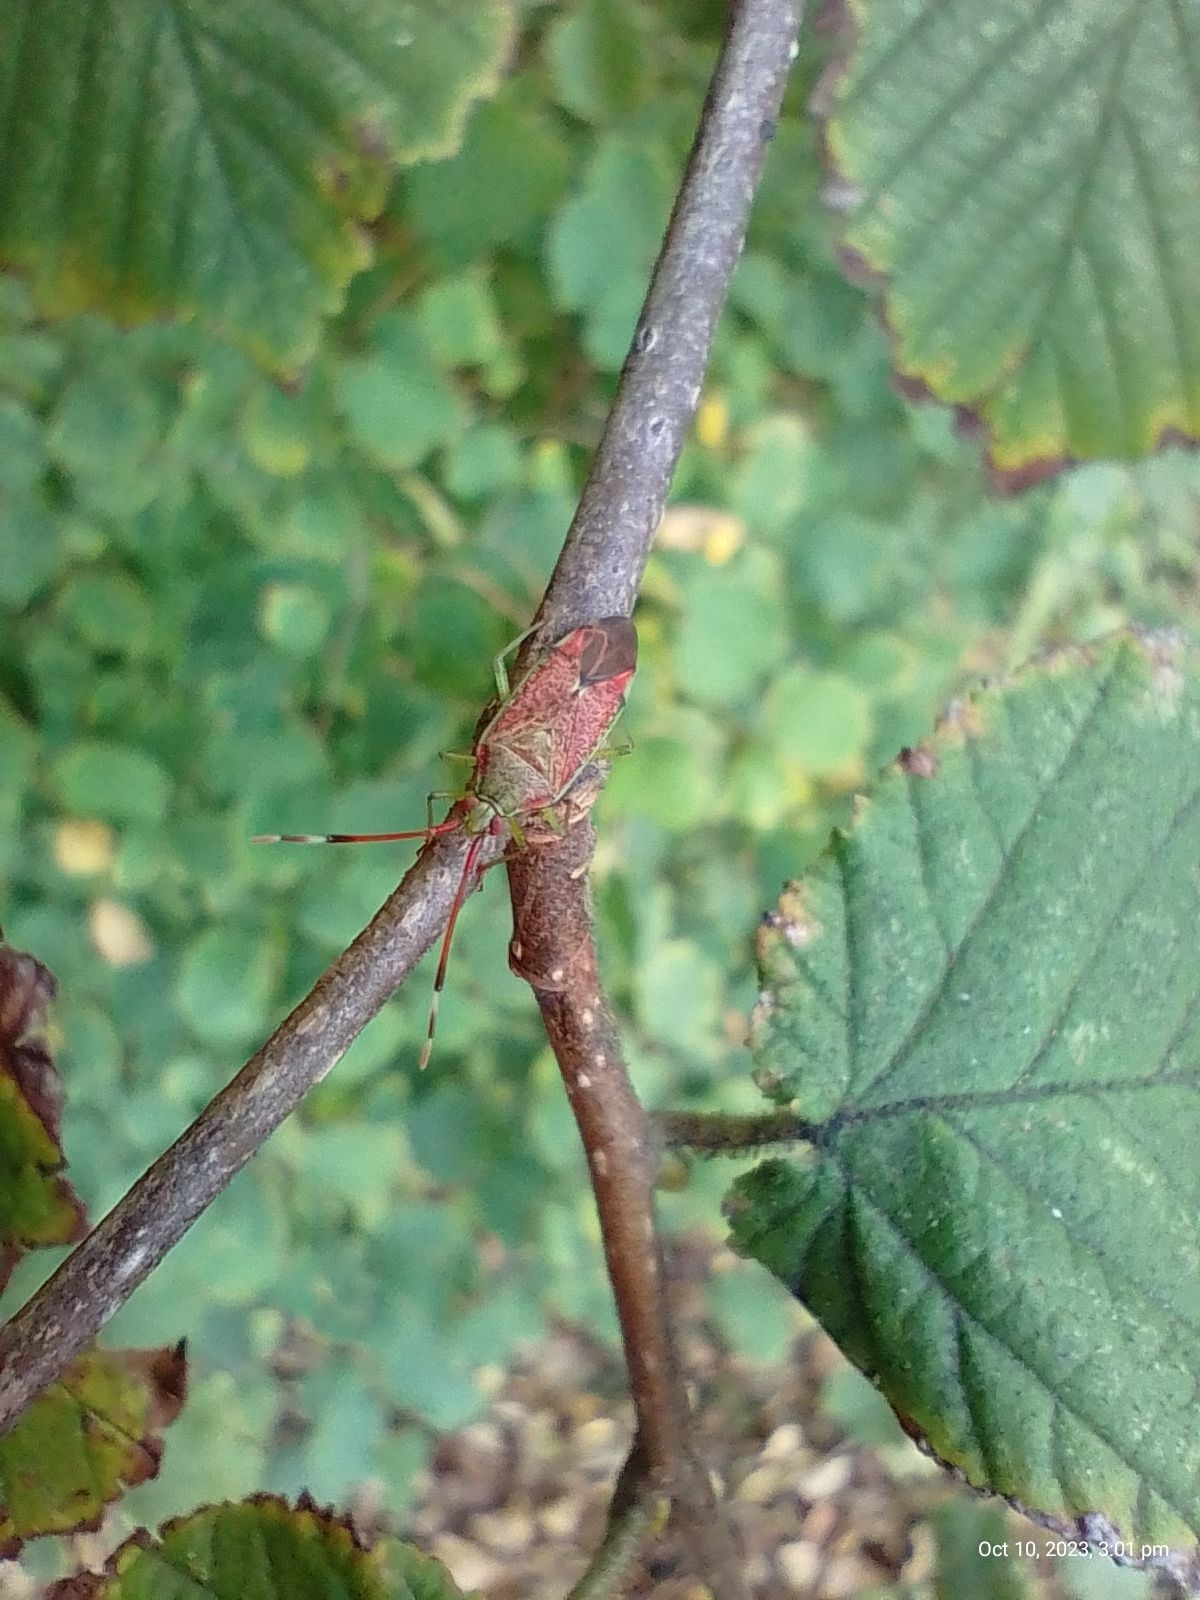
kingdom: Animalia
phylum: Arthropoda
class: Insecta
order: Hemiptera
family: Miridae
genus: Pantilius
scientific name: Pantilius tunicatus
